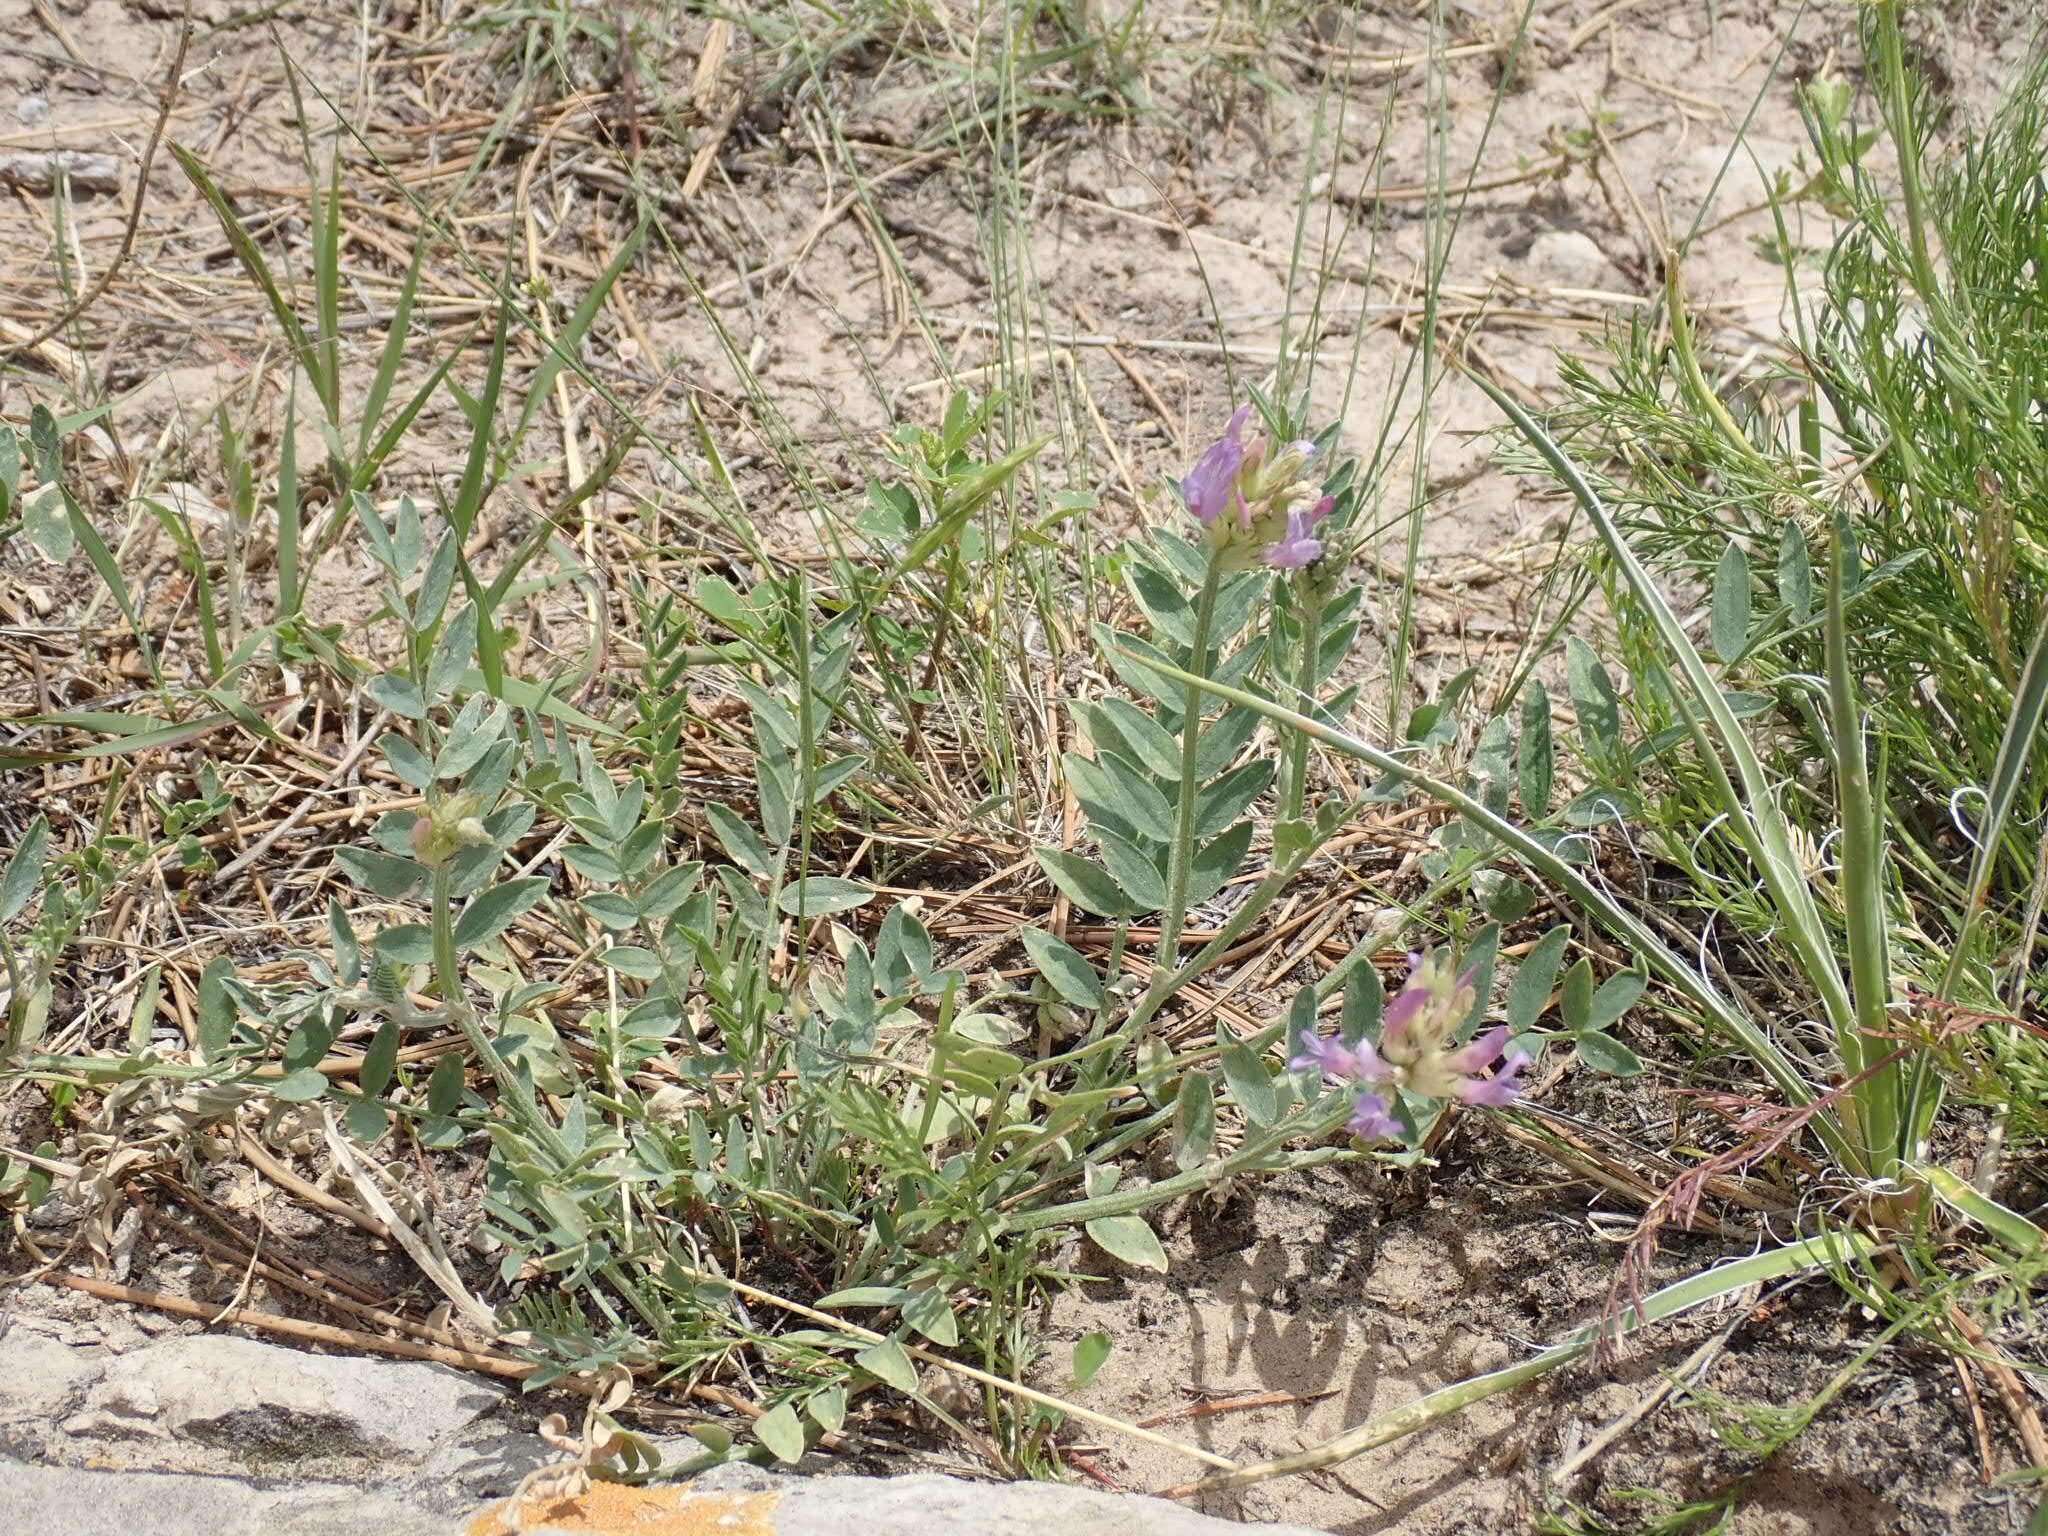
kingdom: Plantae
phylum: Tracheophyta
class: Magnoliopsida
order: Fabales
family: Fabaceae
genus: Astragalus
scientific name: Astragalus laxmannii
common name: Laxmann's milk-vetch
